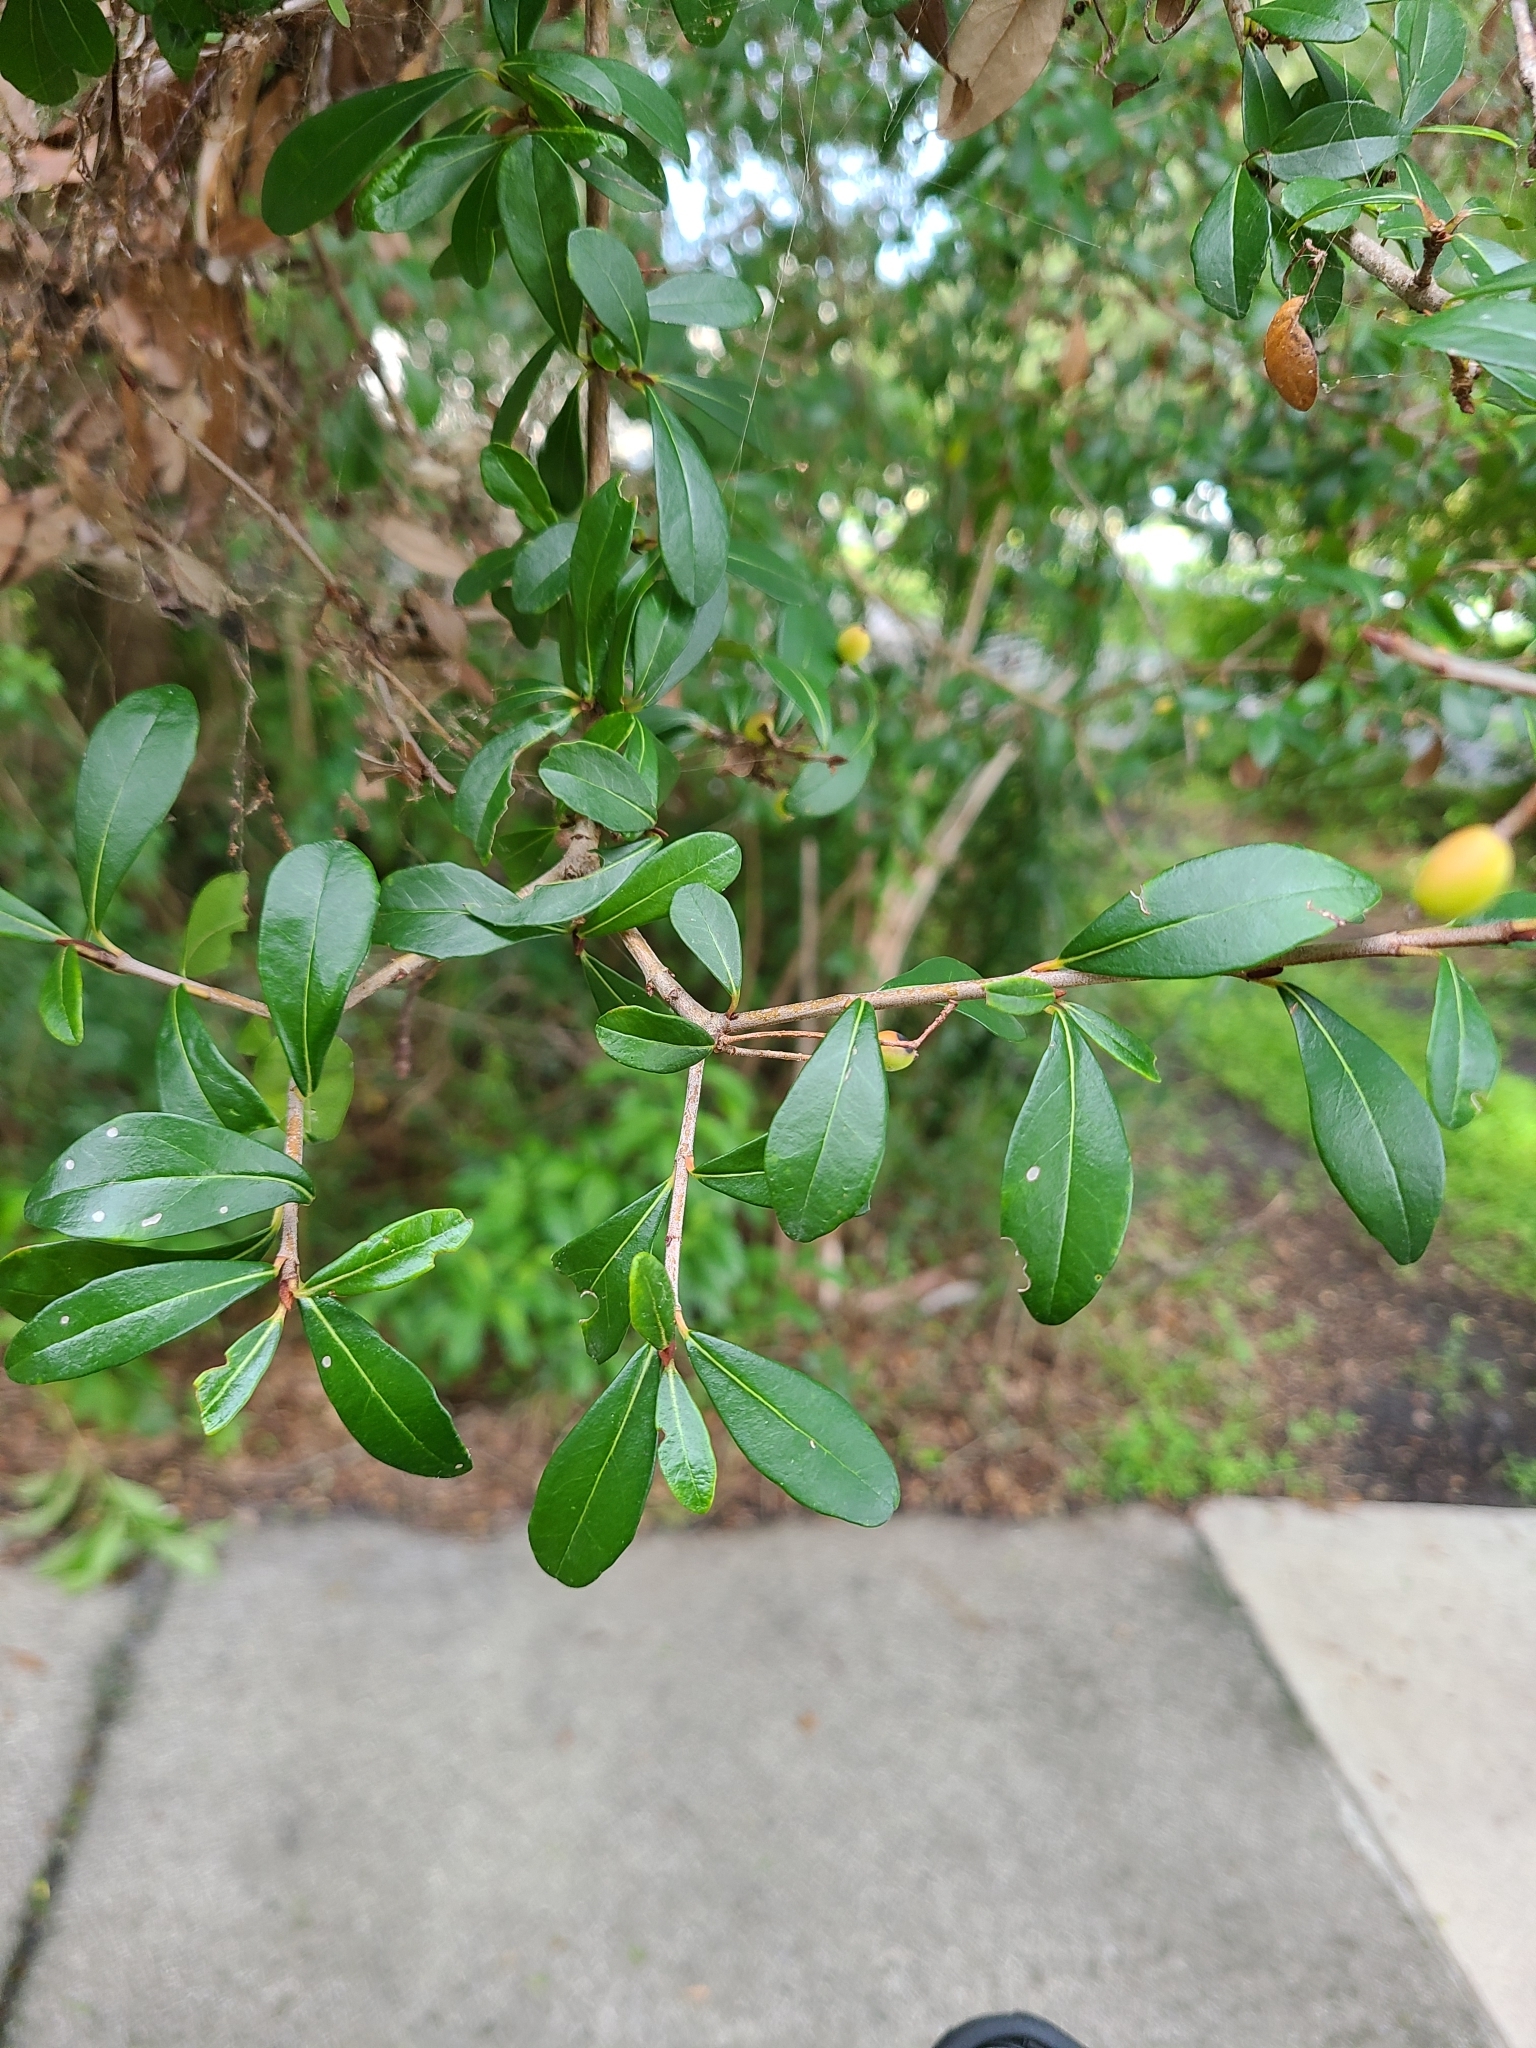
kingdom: Plantae
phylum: Tracheophyta
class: Magnoliopsida
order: Dipsacales
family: Viburnaceae
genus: Viburnum
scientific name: Viburnum obovatum
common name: Walter's viburnum
